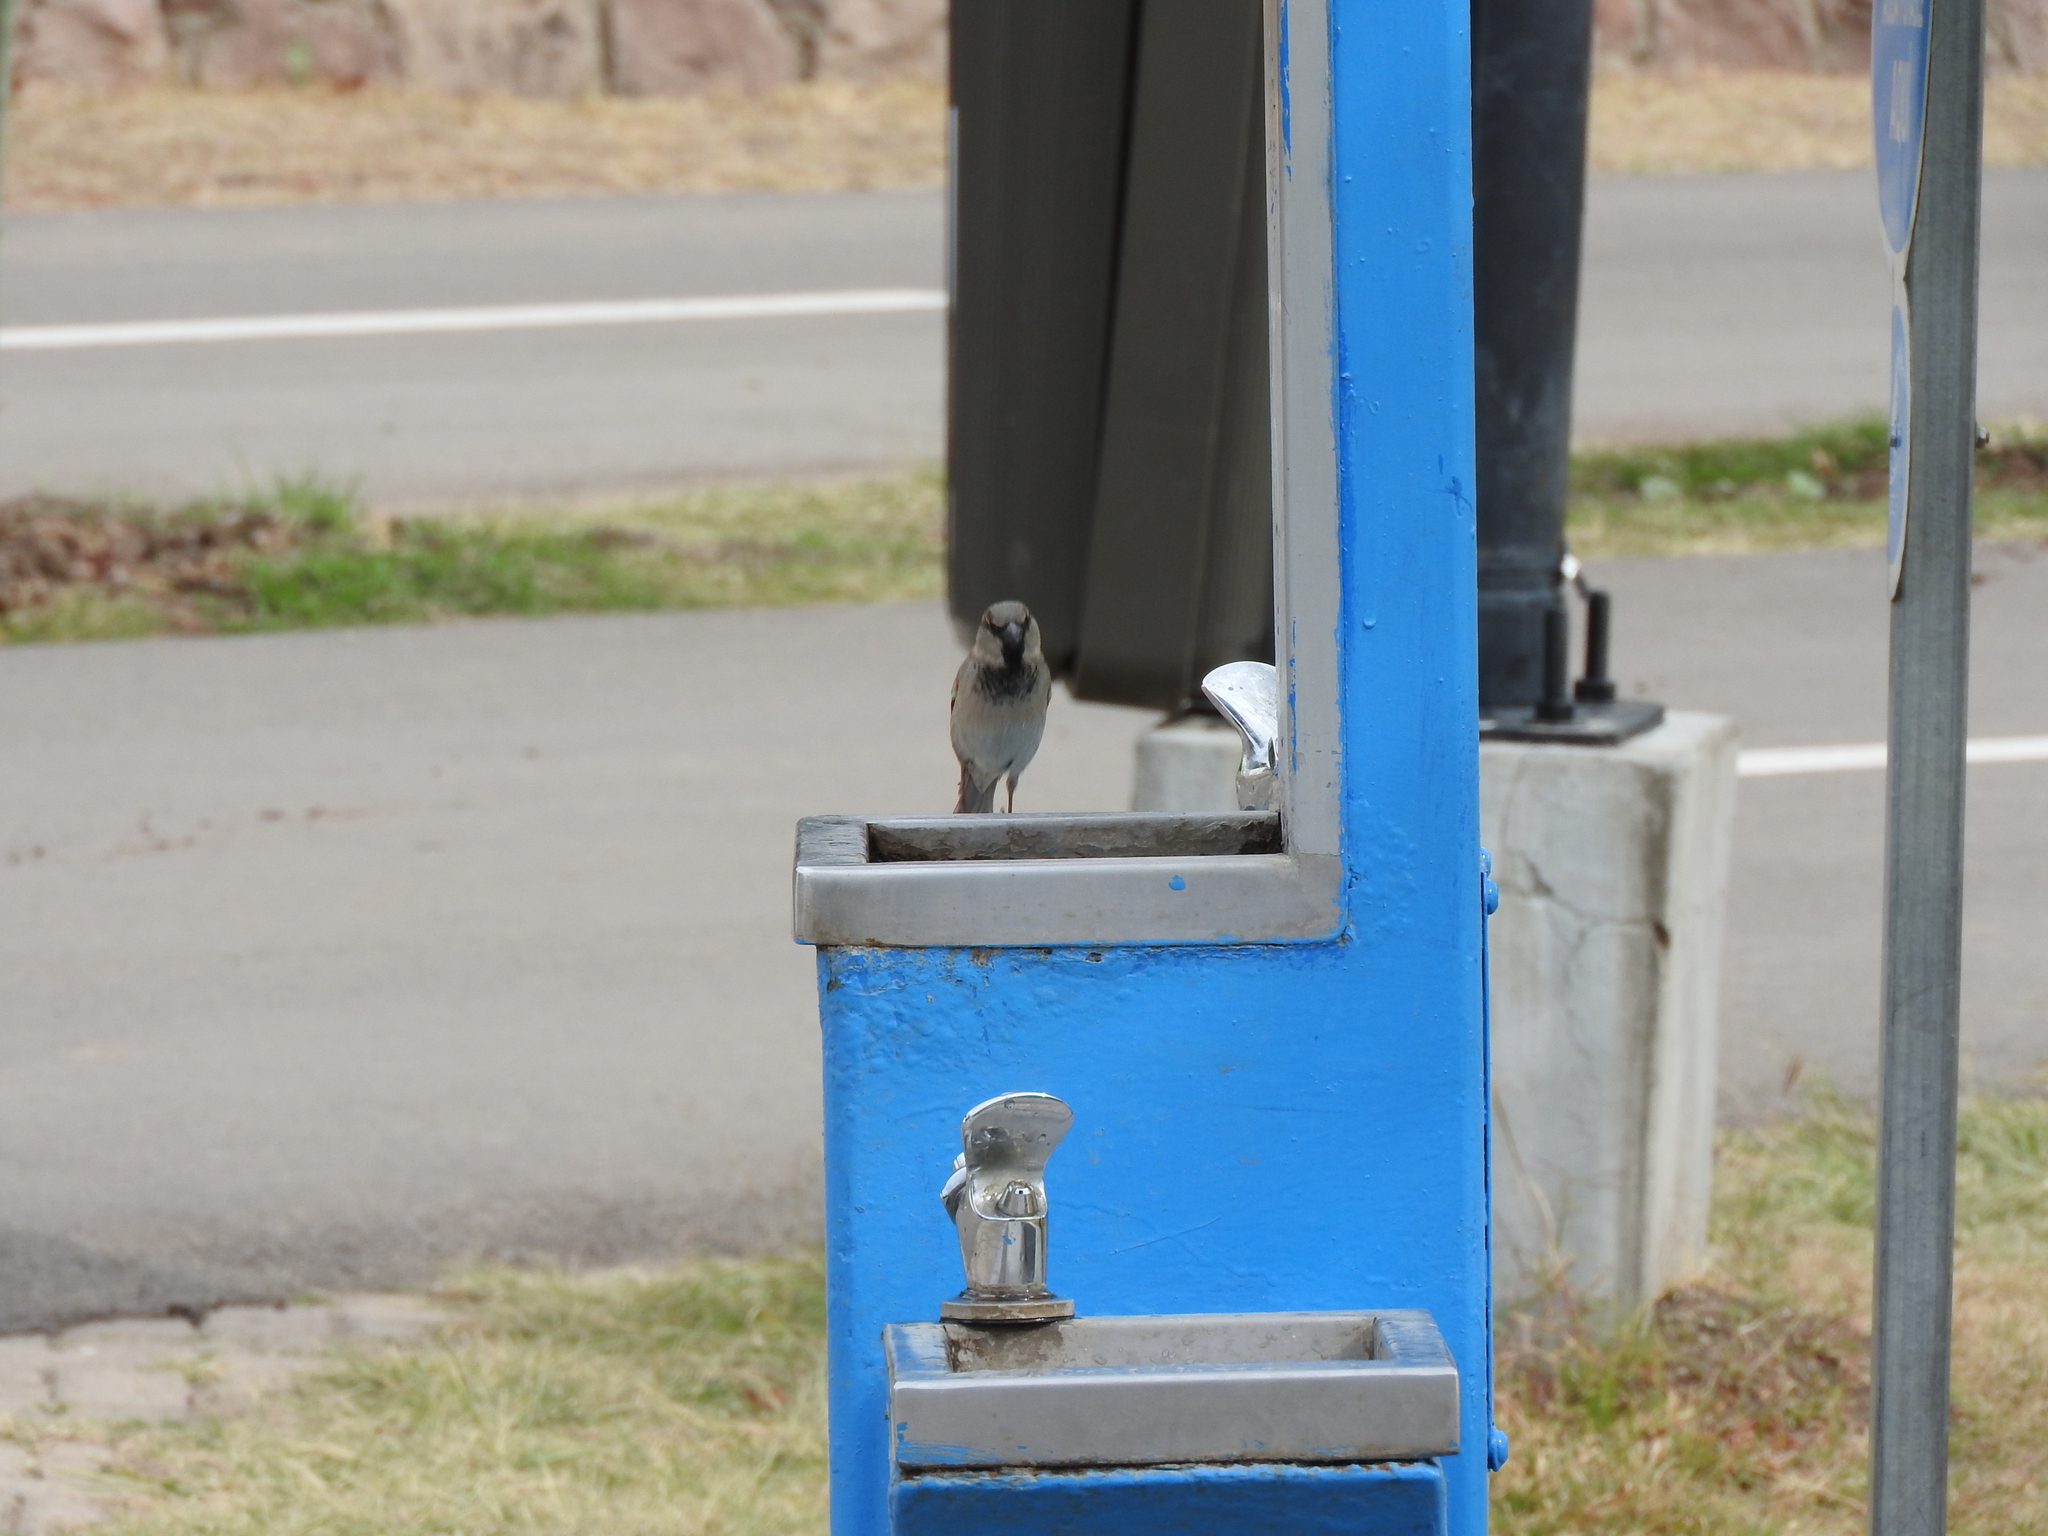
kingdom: Animalia
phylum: Chordata
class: Aves
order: Passeriformes
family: Passeridae
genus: Passer
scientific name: Passer domesticus
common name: House sparrow
